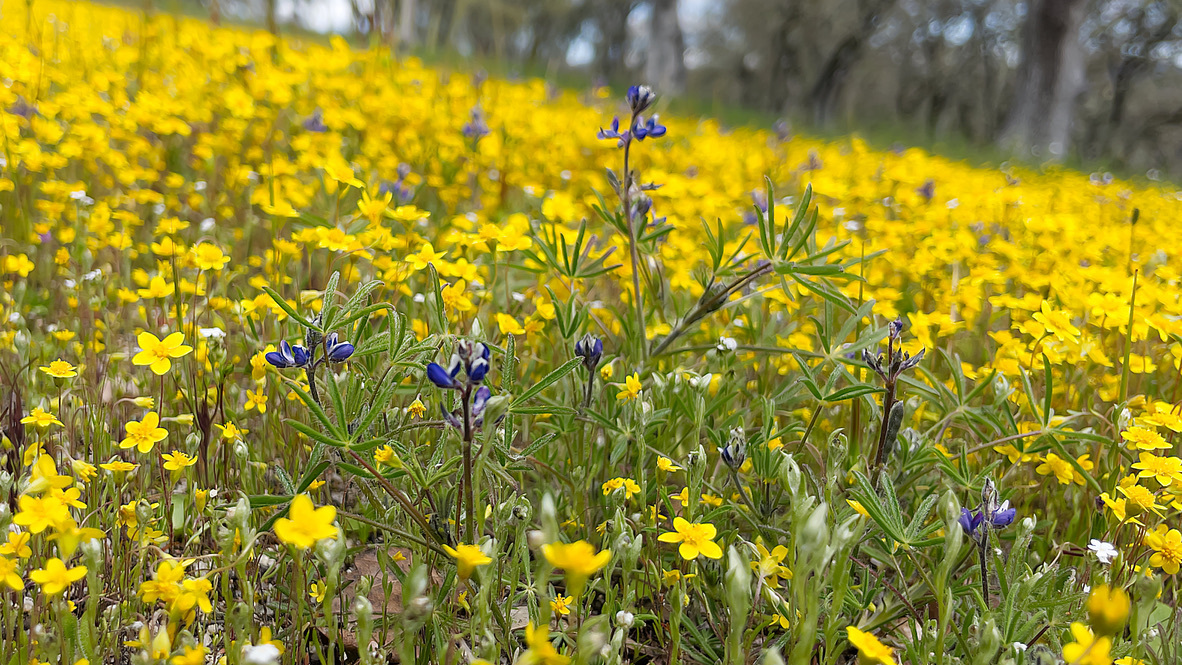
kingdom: Plantae
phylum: Tracheophyta
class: Magnoliopsida
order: Fabales
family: Fabaceae
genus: Lupinus
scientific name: Lupinus bicolor
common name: Miniature lupine
